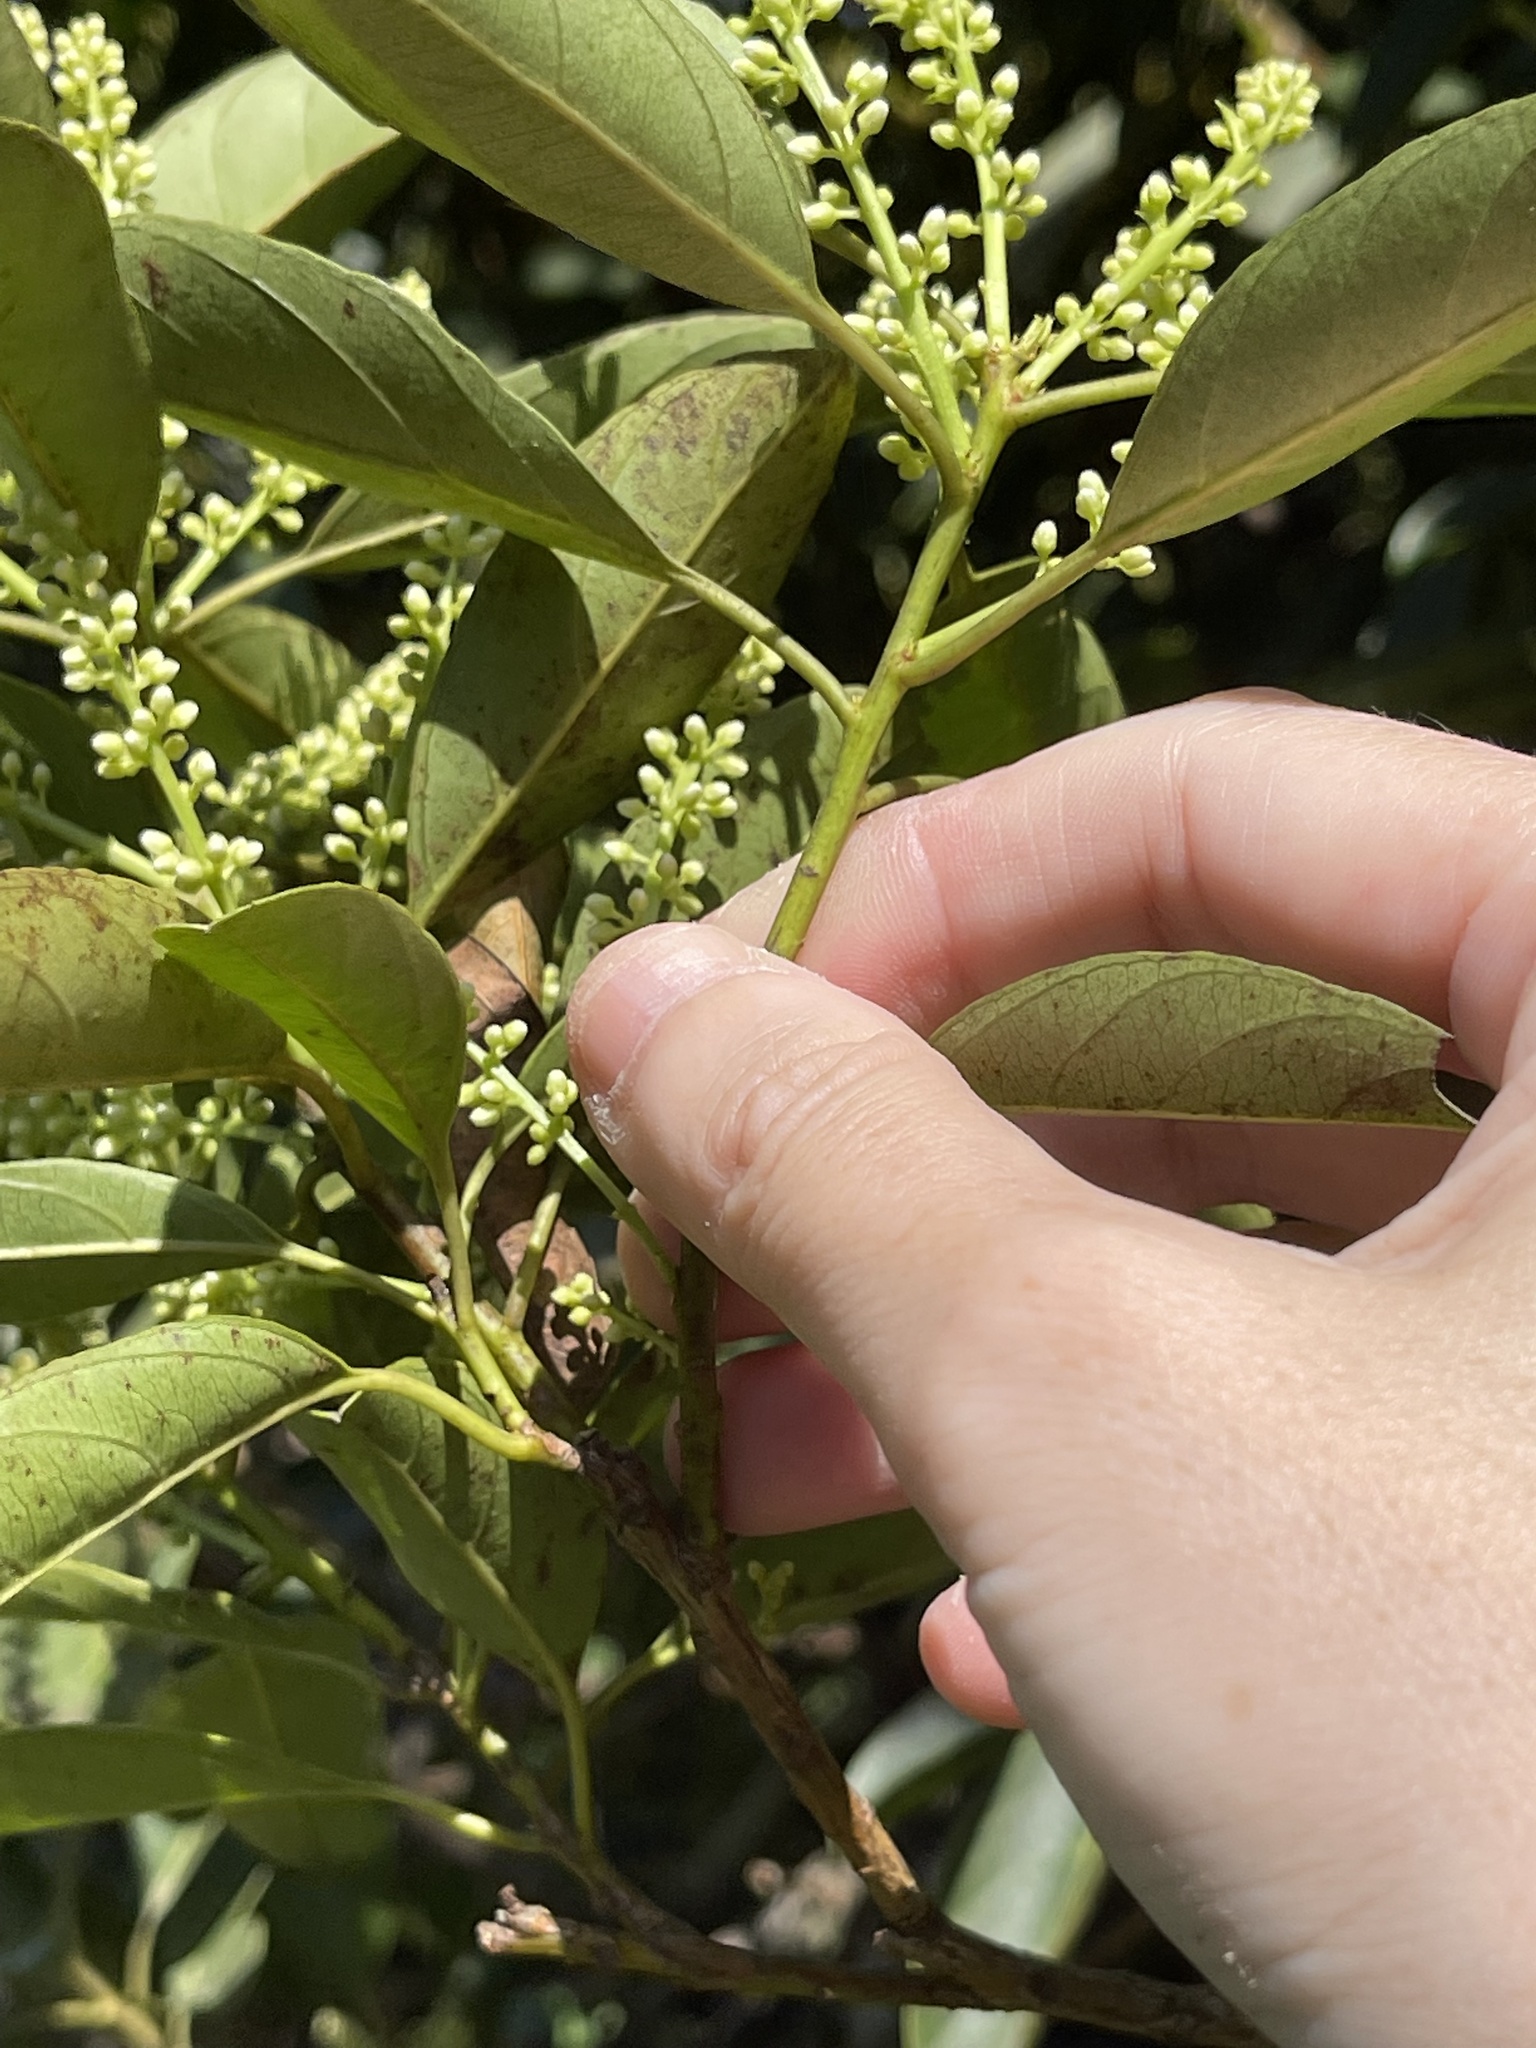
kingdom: Plantae
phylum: Tracheophyta
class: Magnoliopsida
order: Saxifragales
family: Iteaceae
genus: Itea
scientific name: Itea chinensis
